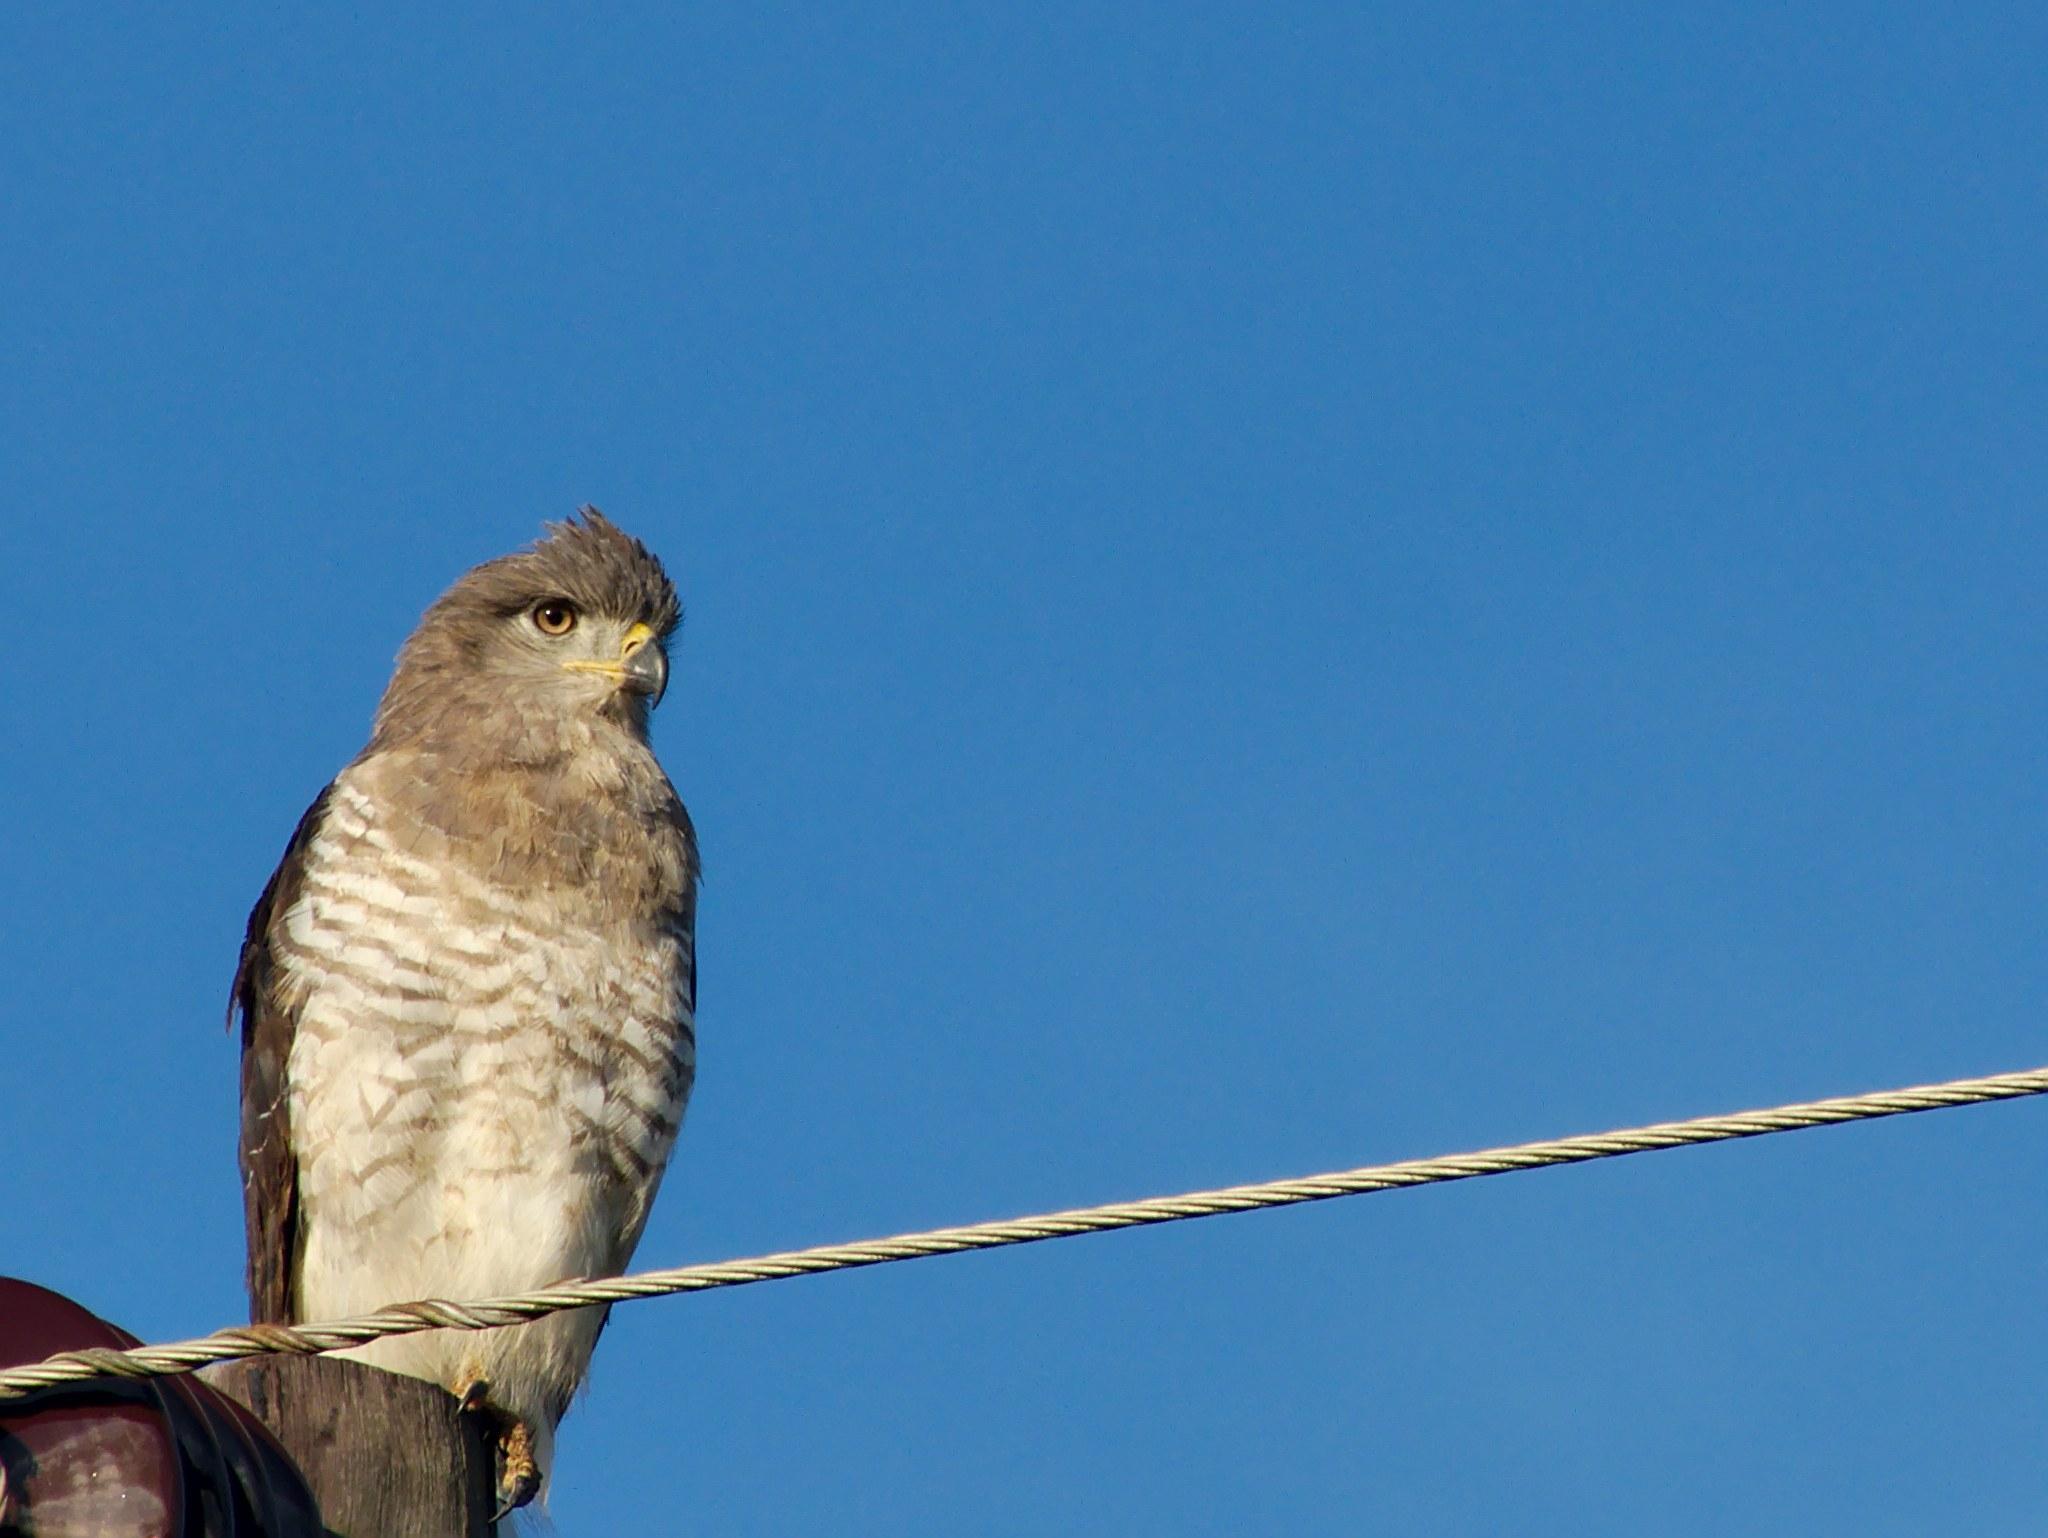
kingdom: Animalia
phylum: Chordata
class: Aves
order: Accipitriformes
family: Accipitridae
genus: Circaetus
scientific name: Circaetus fasciolatus
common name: Southern banded snake eagle
